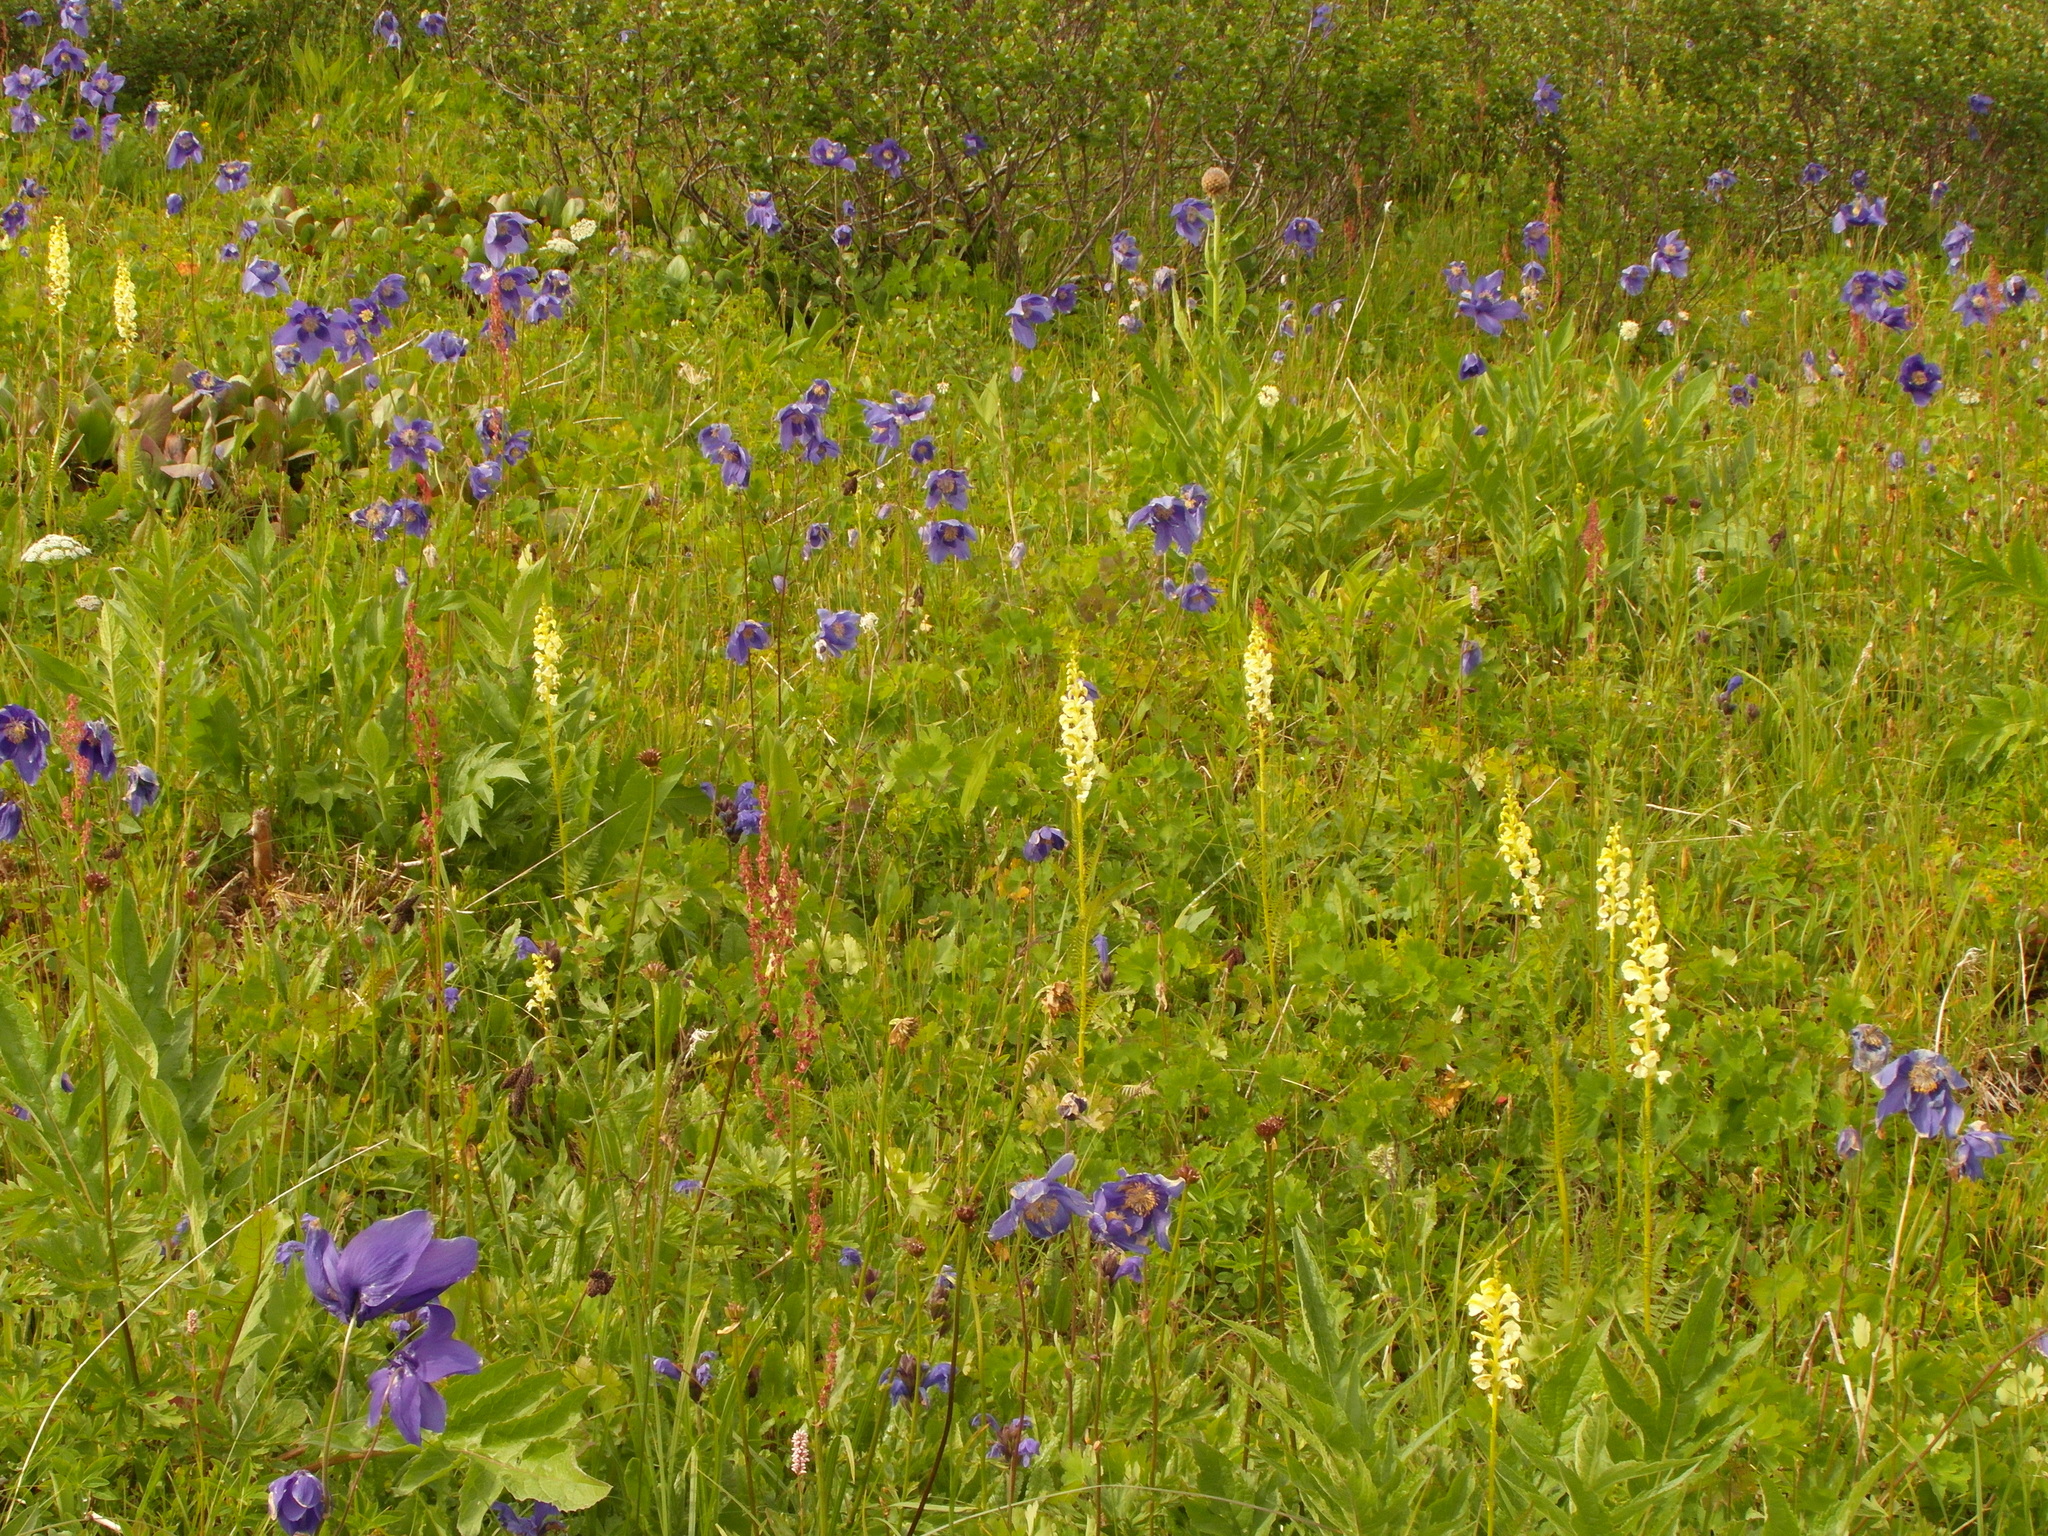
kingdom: Plantae
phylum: Tracheophyta
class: Magnoliopsida
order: Lamiales
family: Orobanchaceae
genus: Pedicularis
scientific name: Pedicularis incarnata
